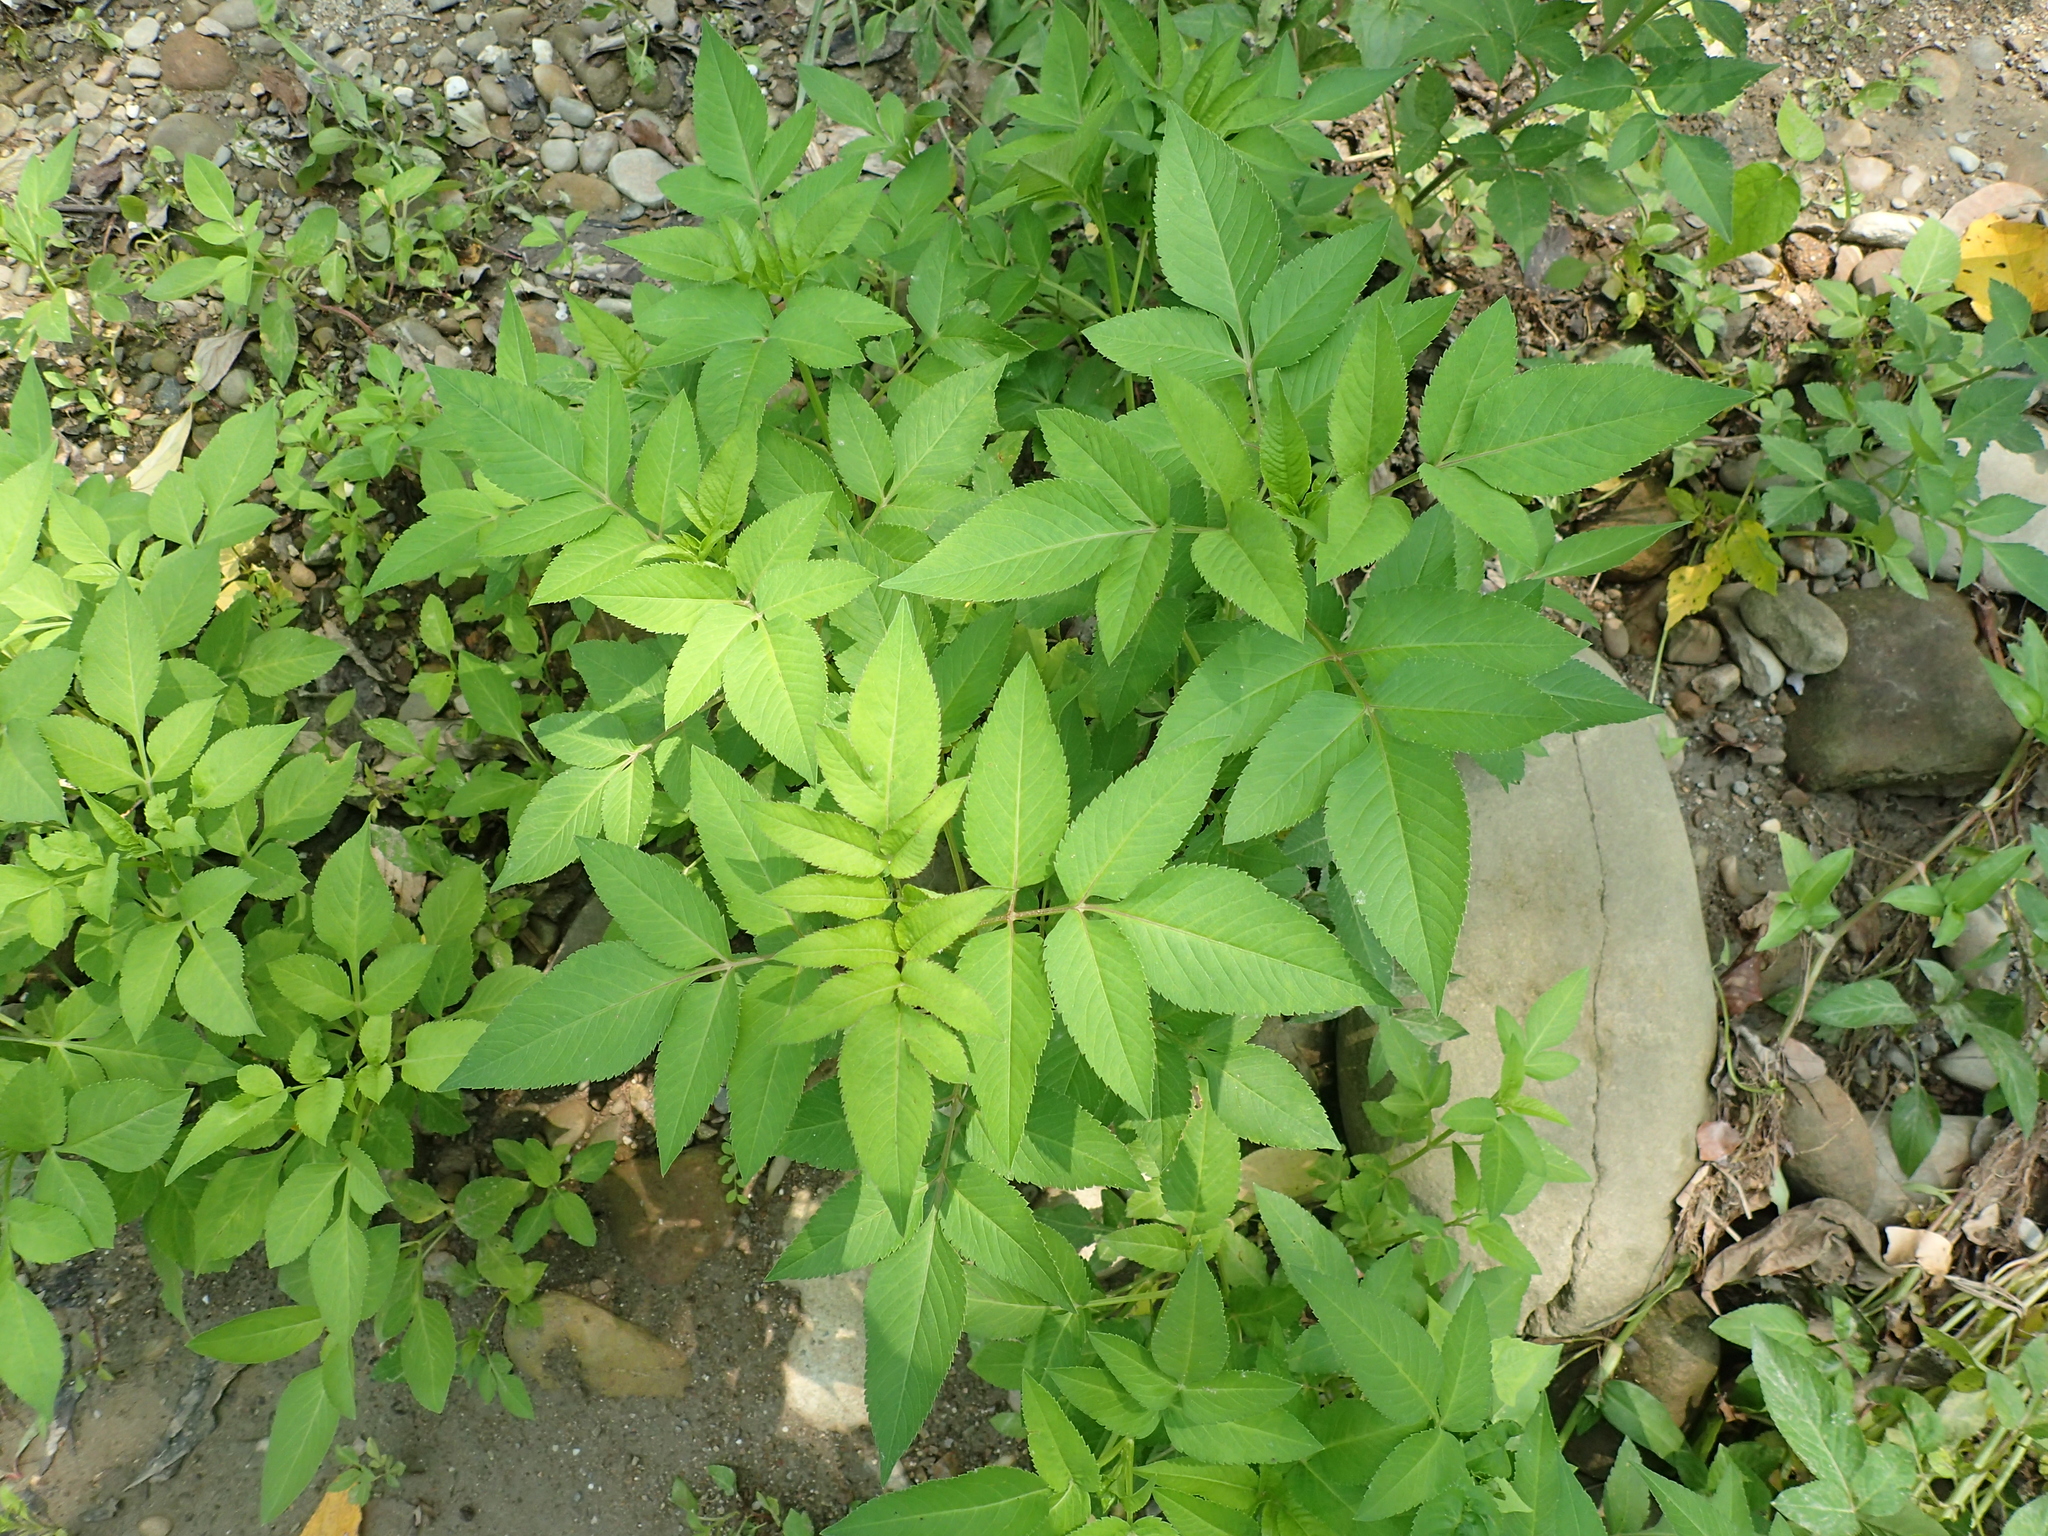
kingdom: Plantae
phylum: Tracheophyta
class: Magnoliopsida
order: Asterales
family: Asteraceae
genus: Bidens
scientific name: Bidens alba
